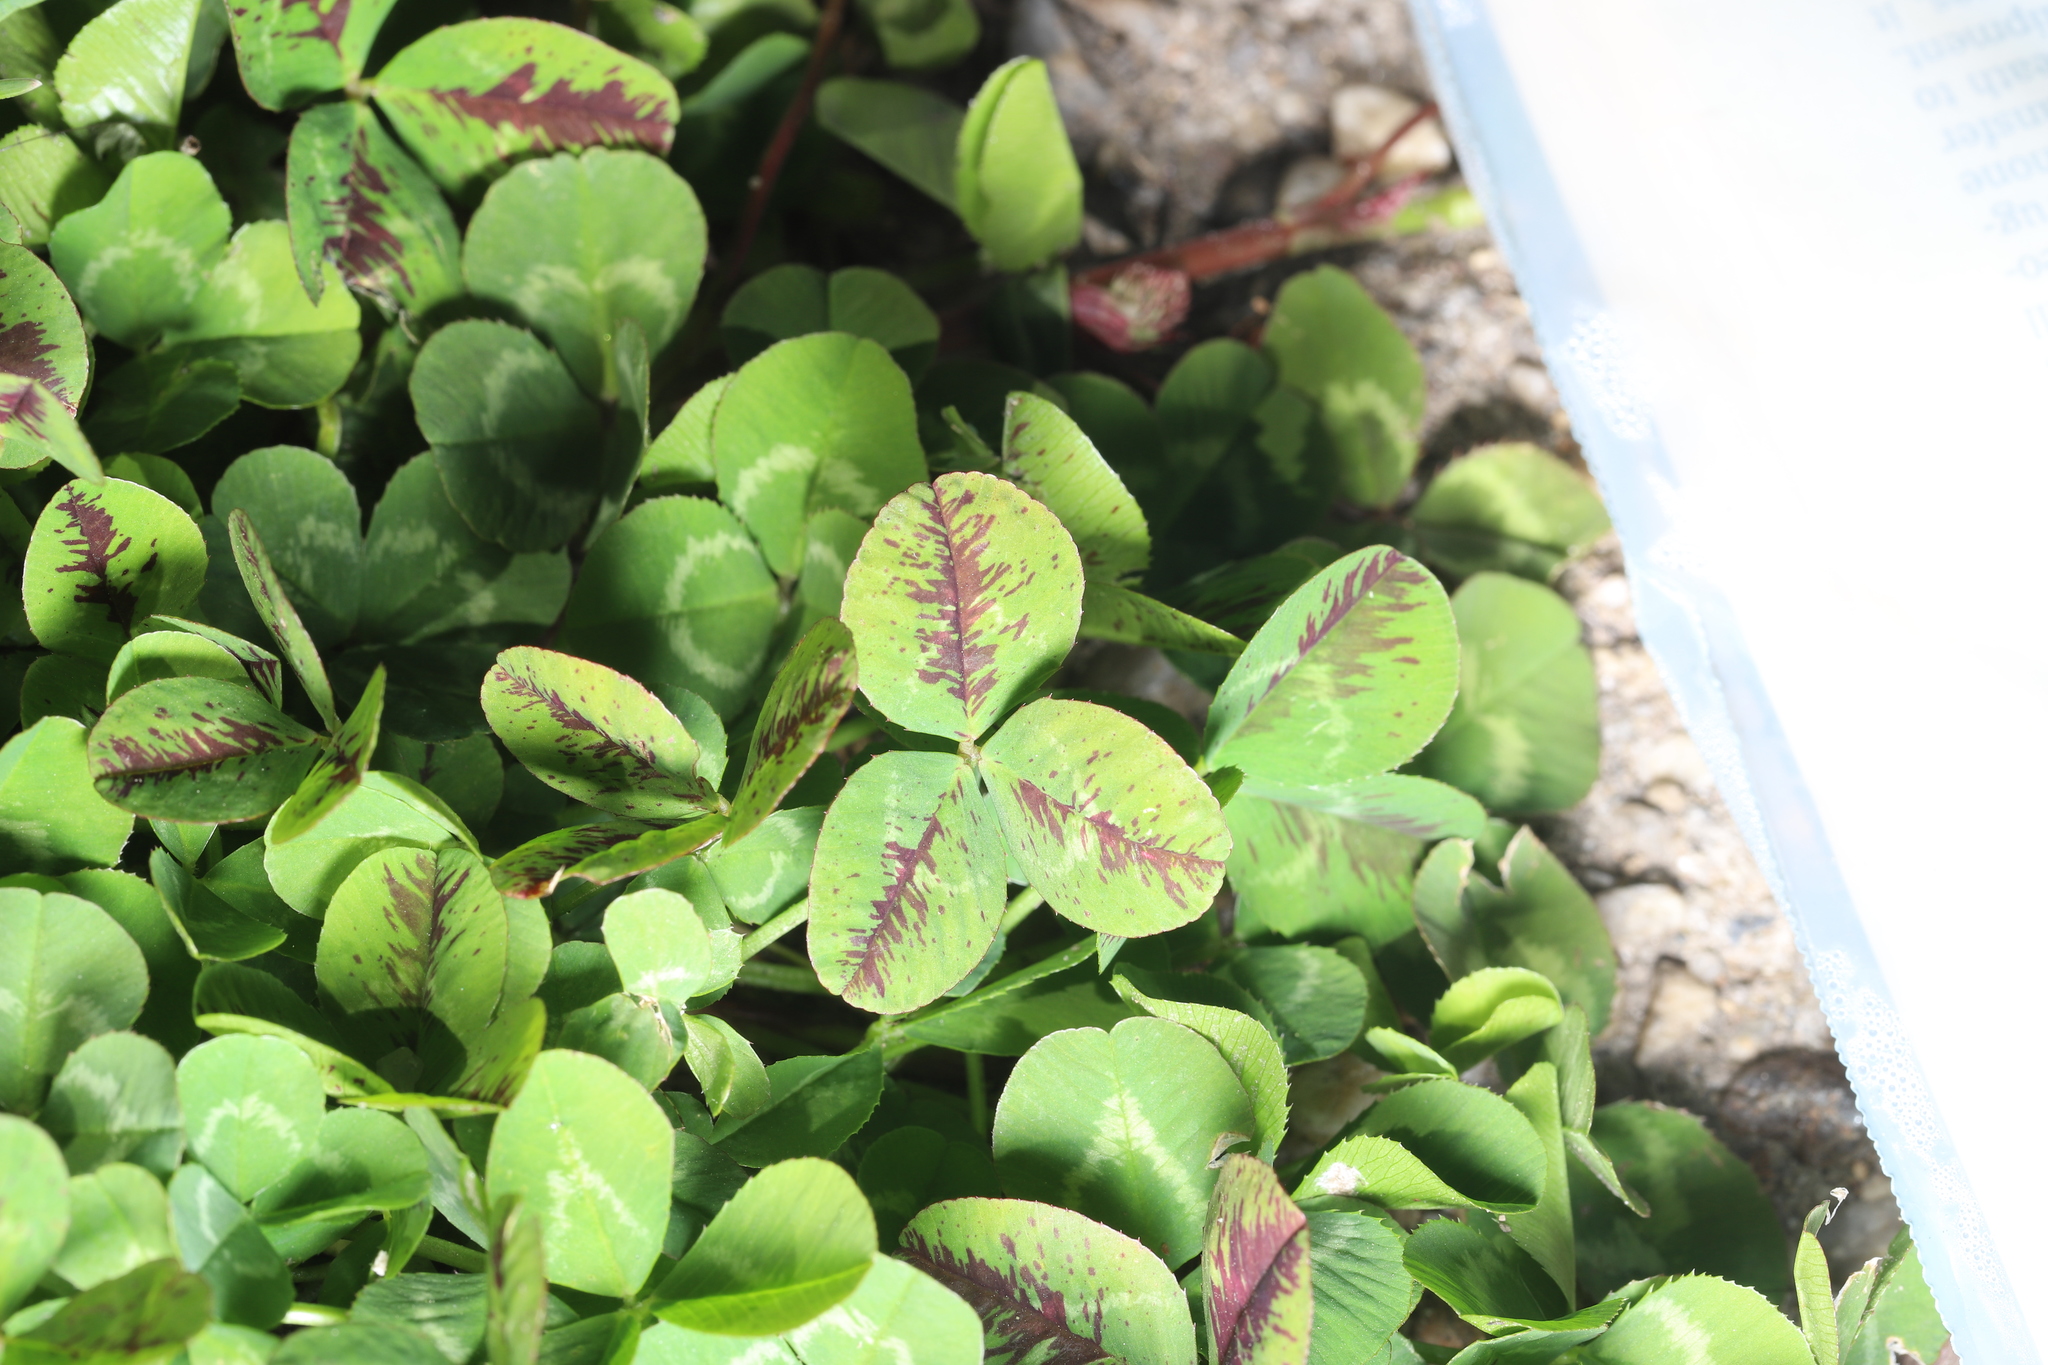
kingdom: Plantae
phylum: Tracheophyta
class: Magnoliopsida
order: Fabales
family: Fabaceae
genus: Trifolium
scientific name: Trifolium repens
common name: White clover
